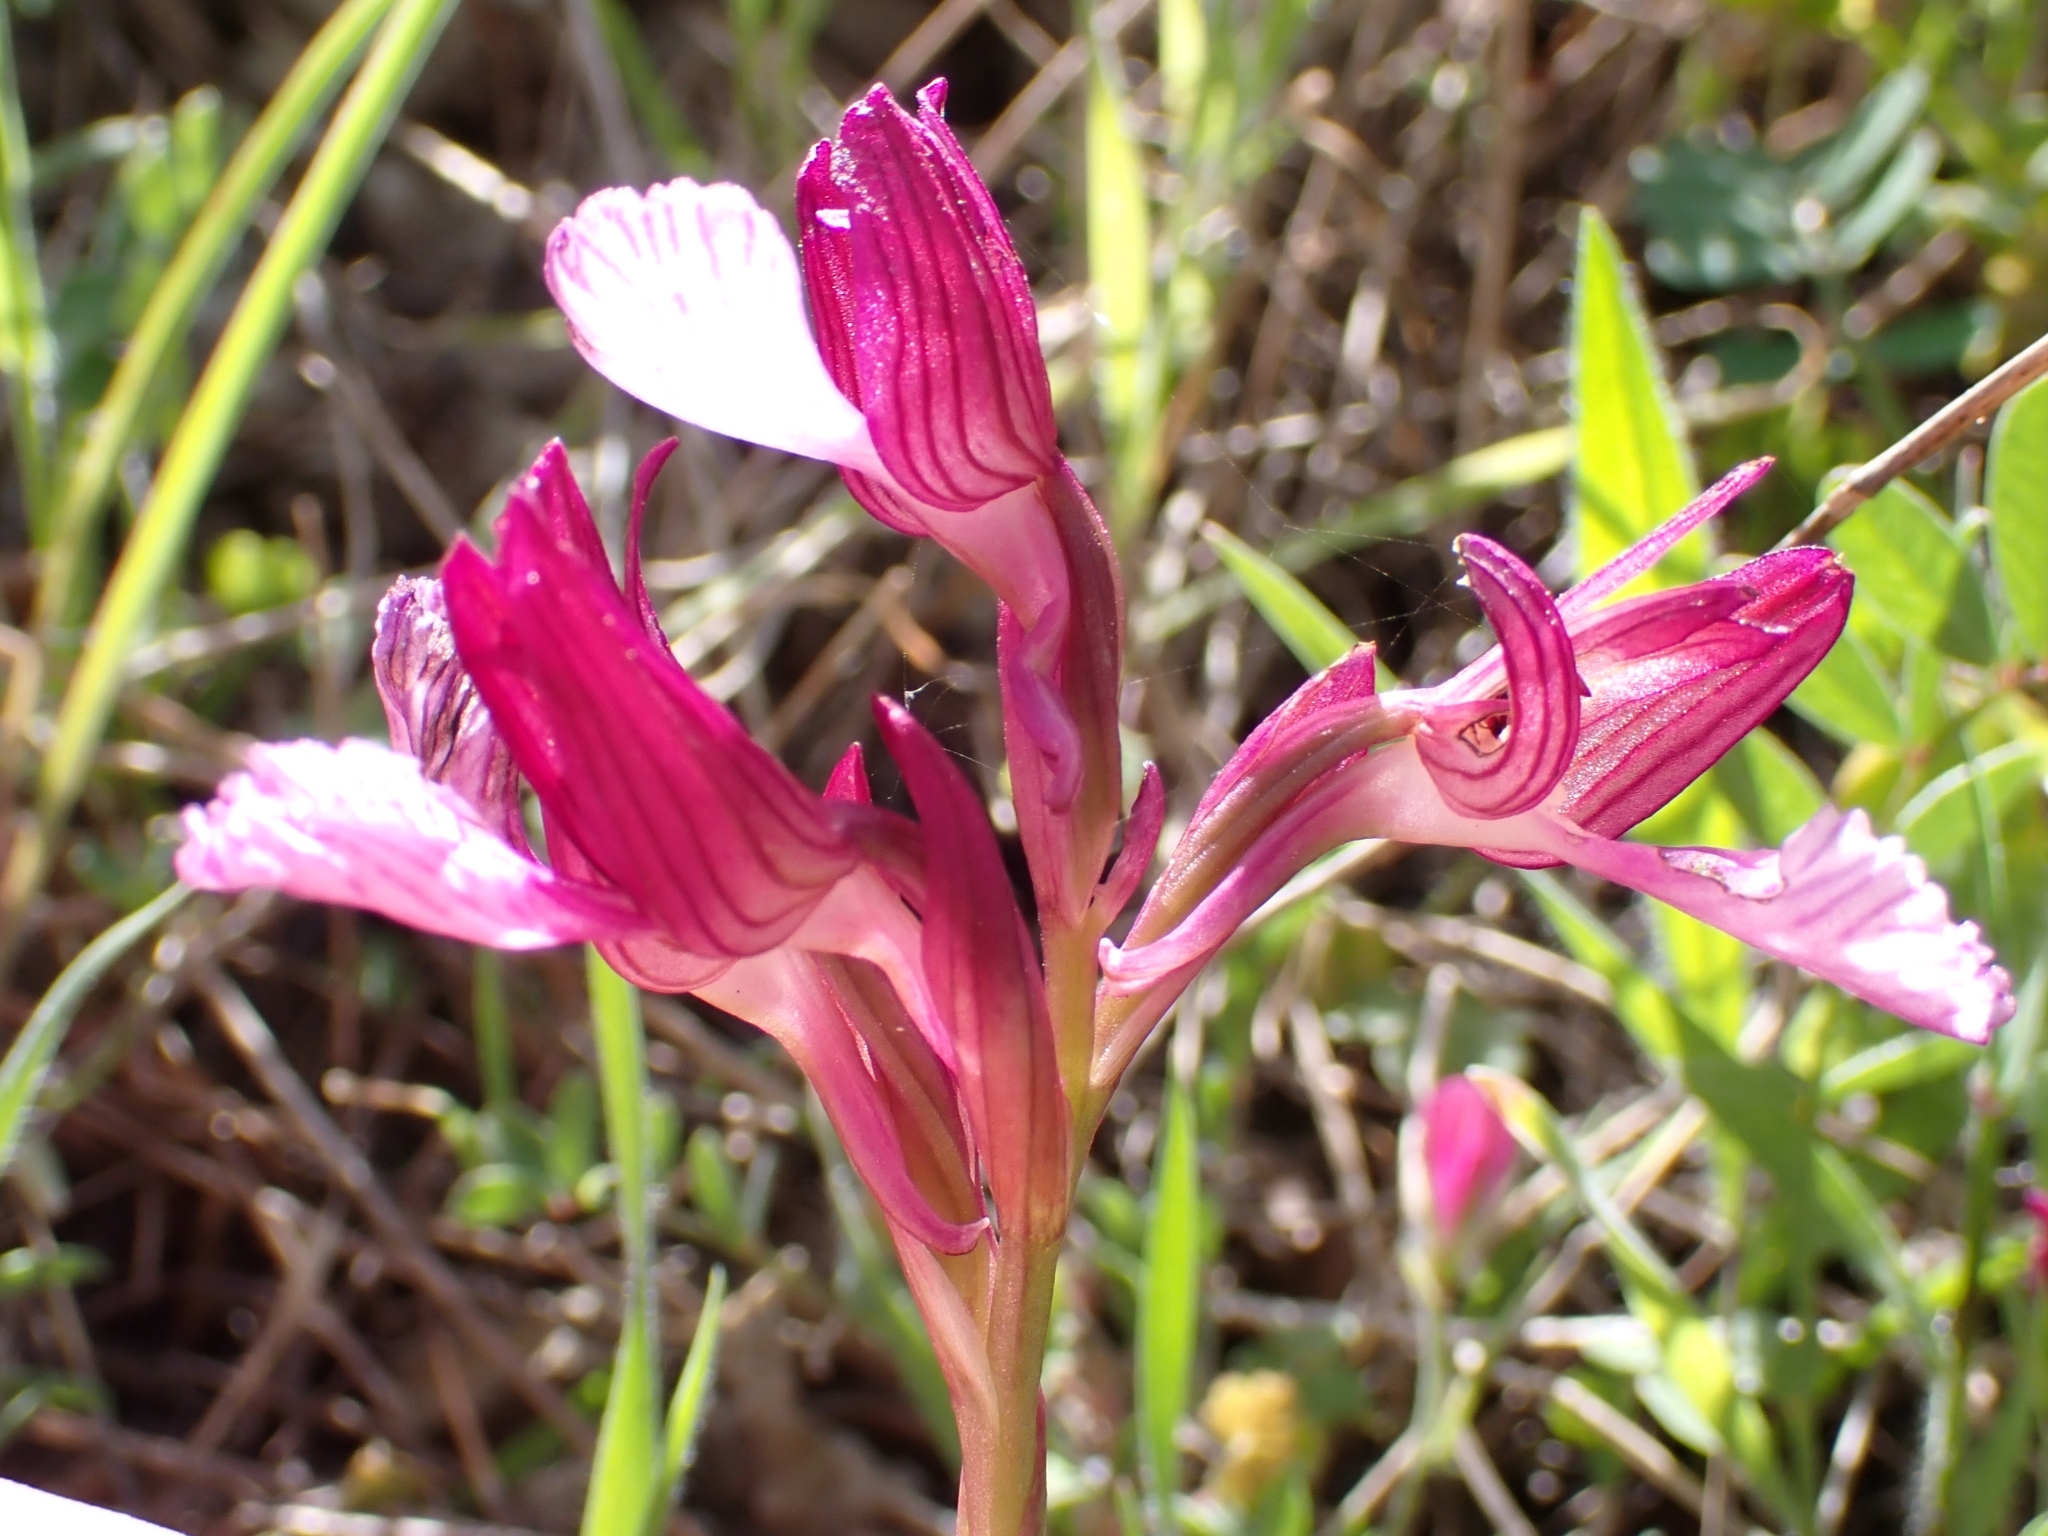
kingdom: Plantae
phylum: Tracheophyta
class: Liliopsida
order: Asparagales
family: Orchidaceae
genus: Anacamptis
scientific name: Anacamptis papilionacea
